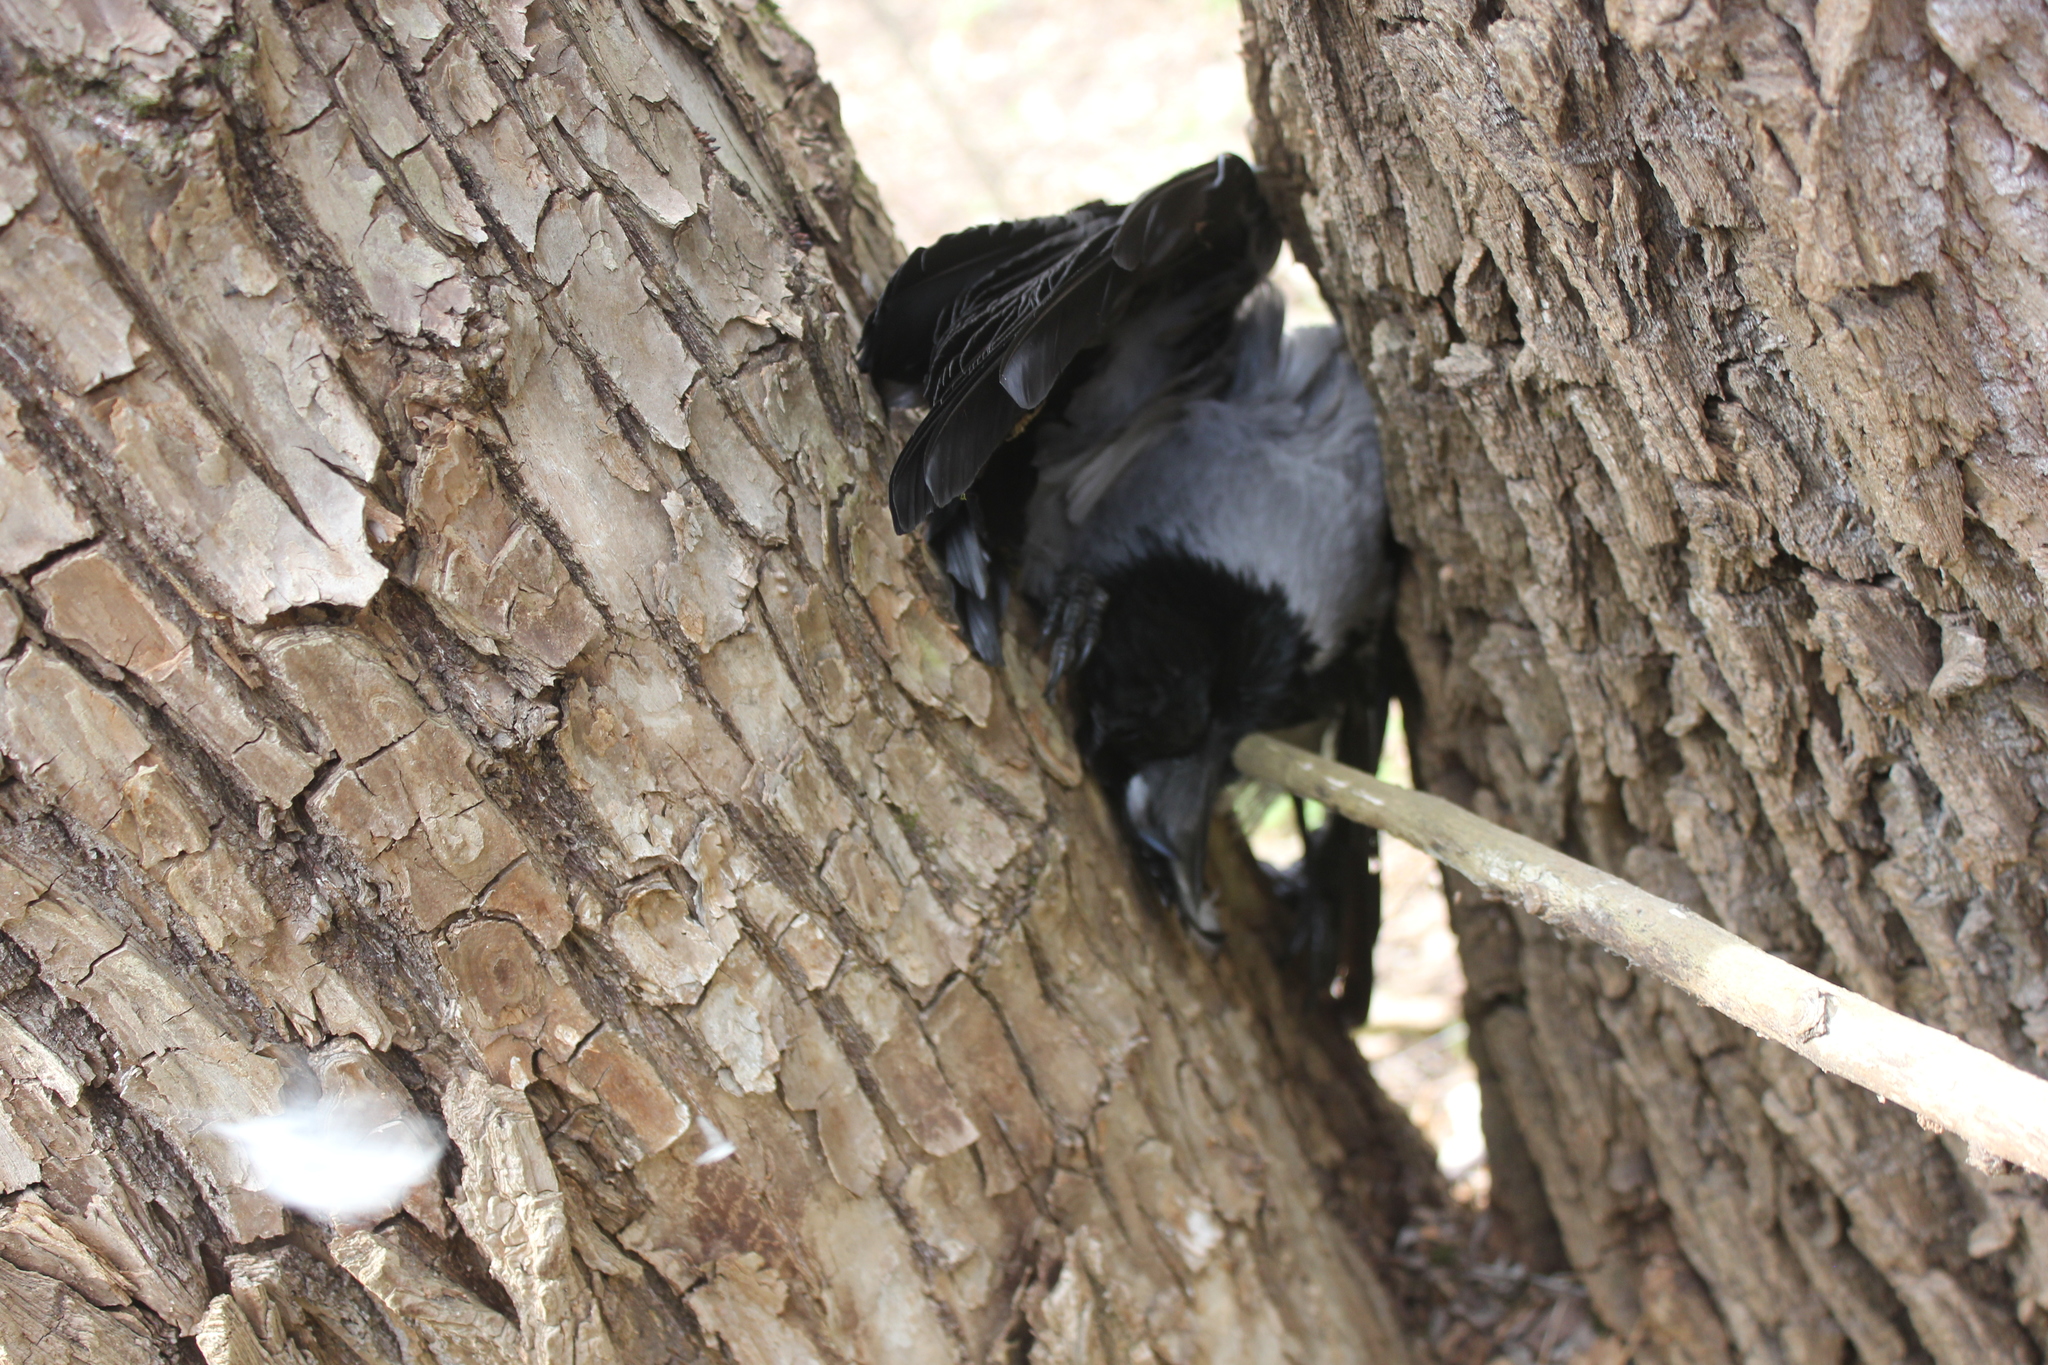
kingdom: Animalia
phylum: Chordata
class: Aves
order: Passeriformes
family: Corvidae
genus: Corvus
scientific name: Corvus cornix
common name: Hooded crow
